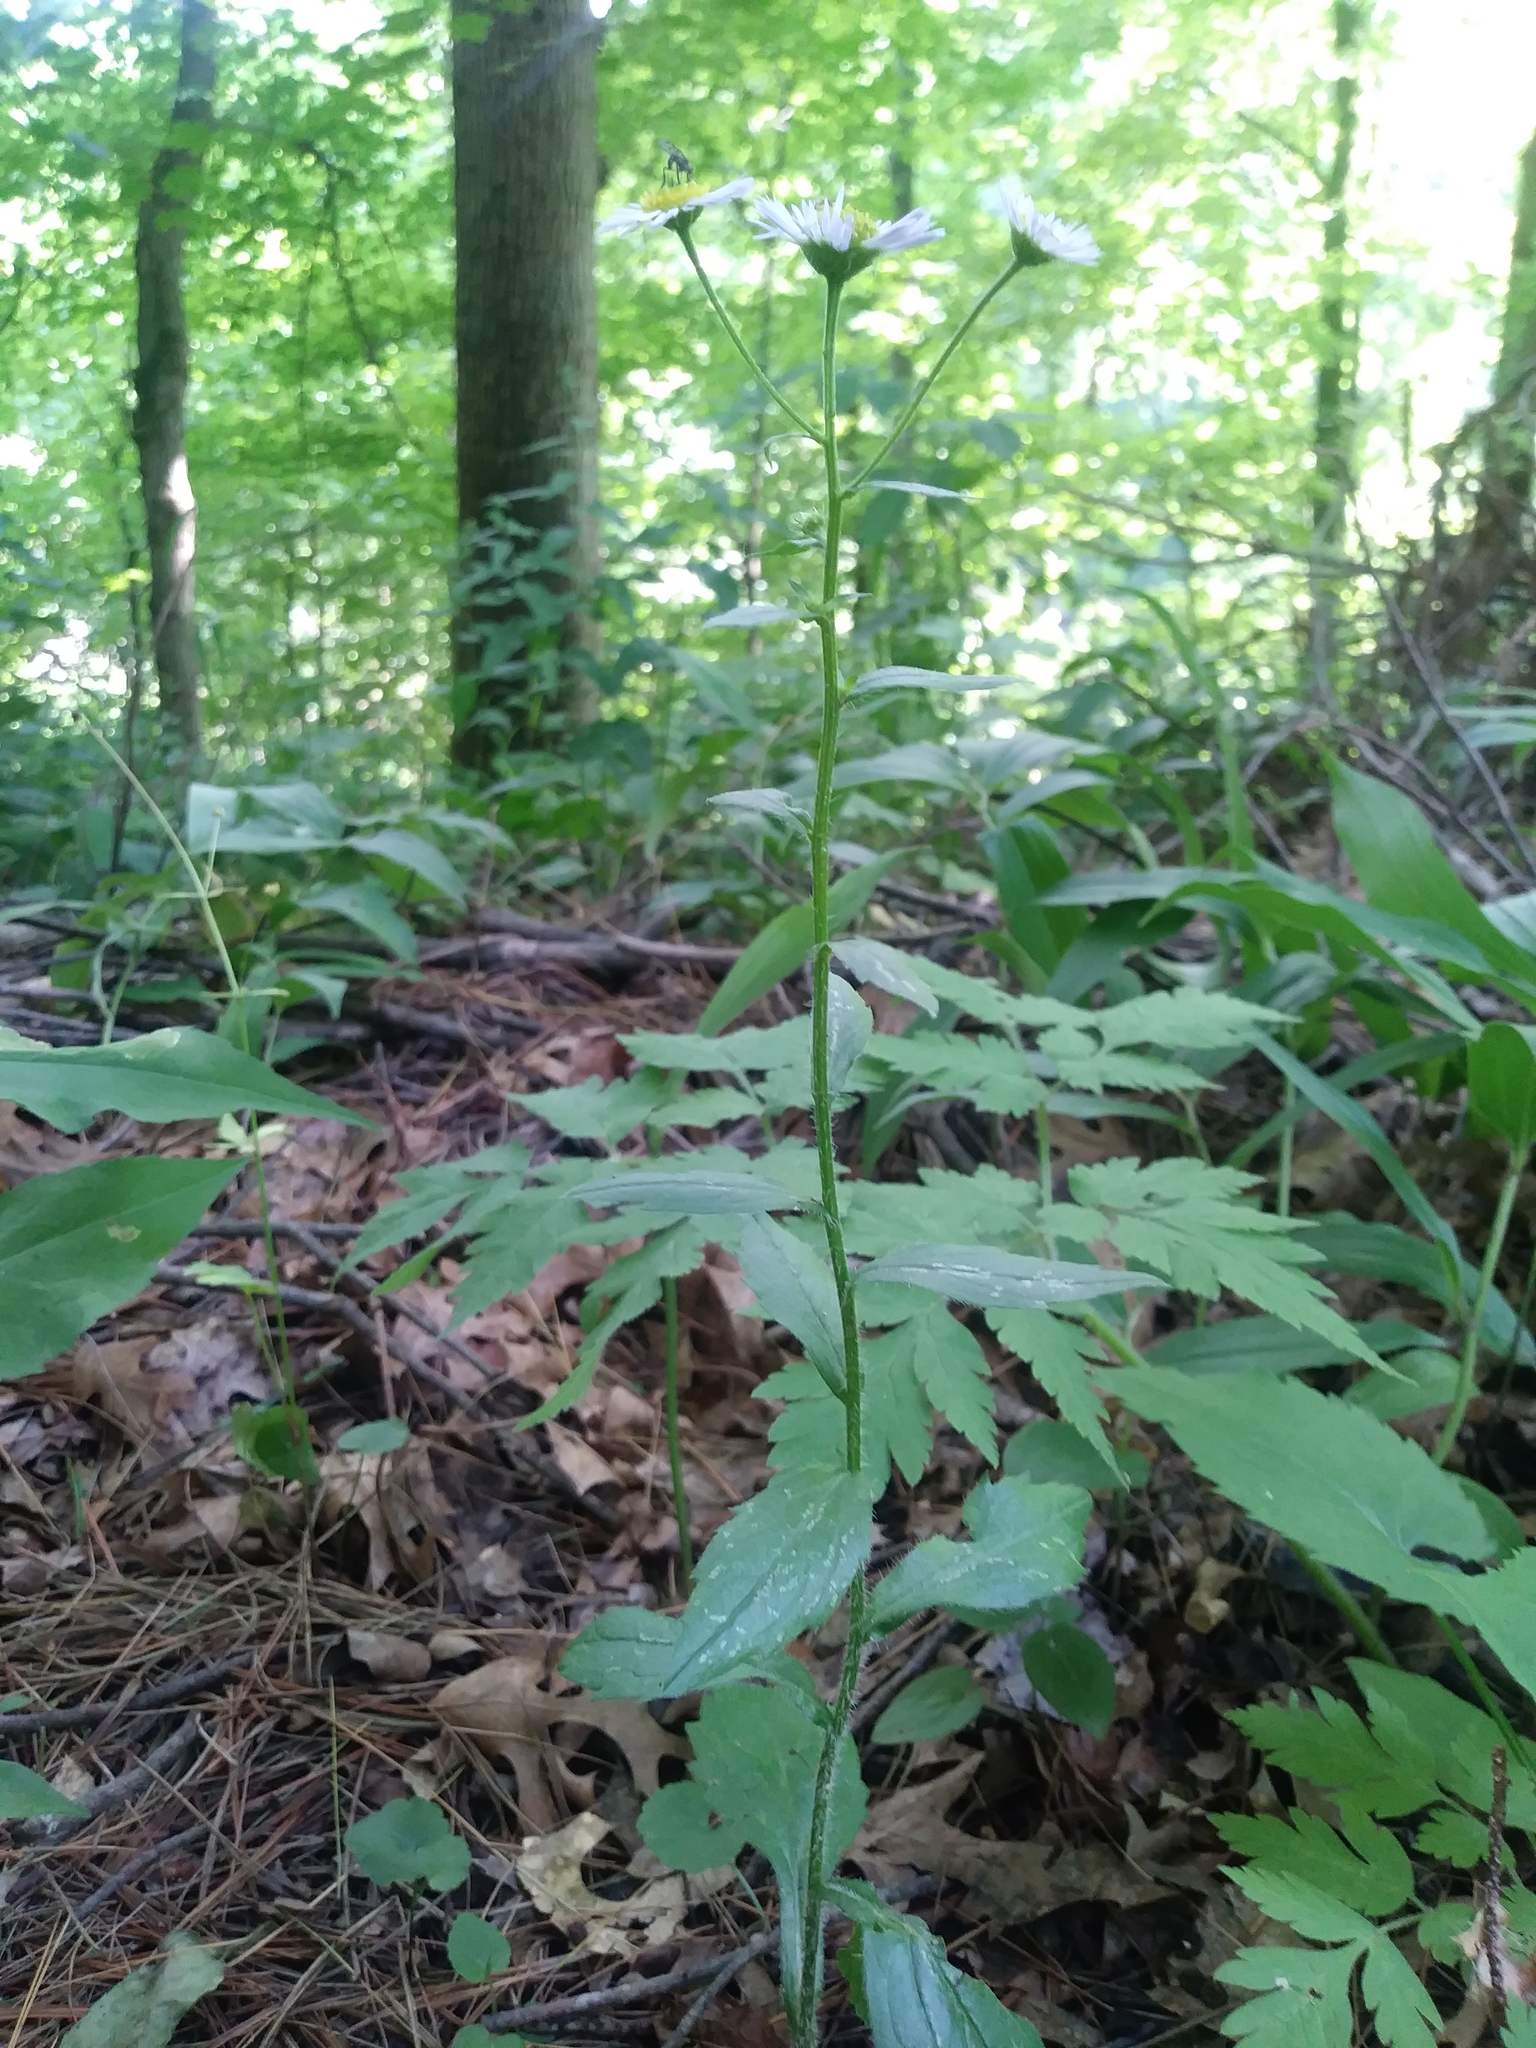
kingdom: Plantae
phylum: Tracheophyta
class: Magnoliopsida
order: Asterales
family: Asteraceae
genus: Erigeron
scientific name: Erigeron annuus
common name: Tall fleabane
